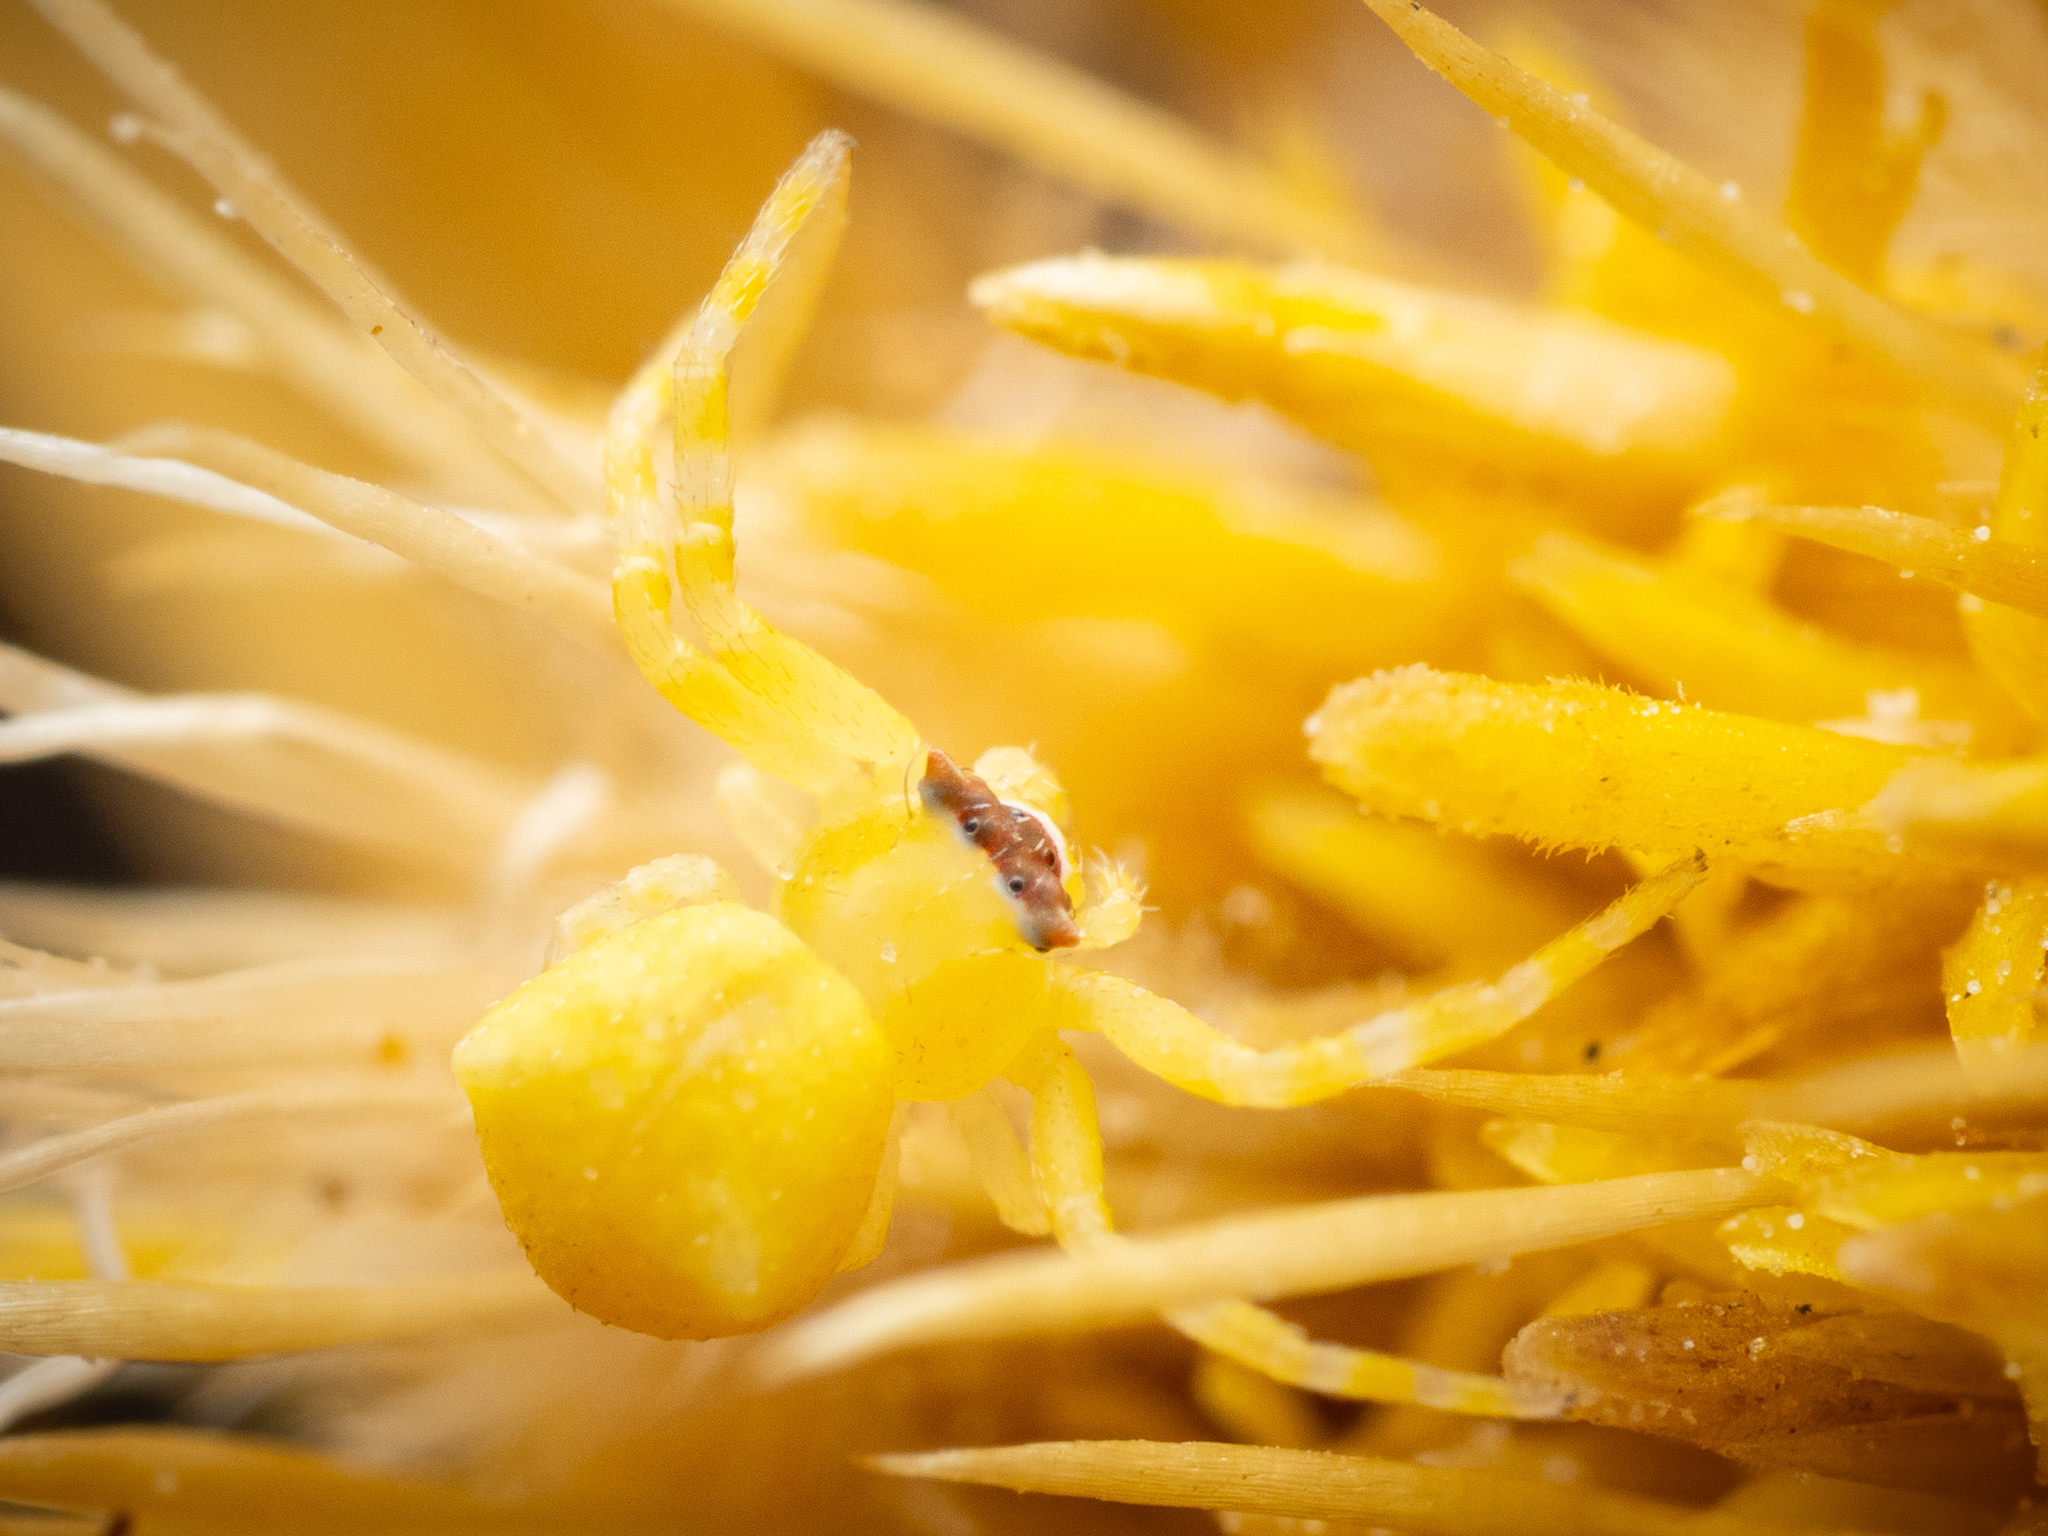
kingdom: Animalia
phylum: Arthropoda
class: Arachnida
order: Araneae
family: Thomisidae
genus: Thomisus
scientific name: Thomisus onustus
